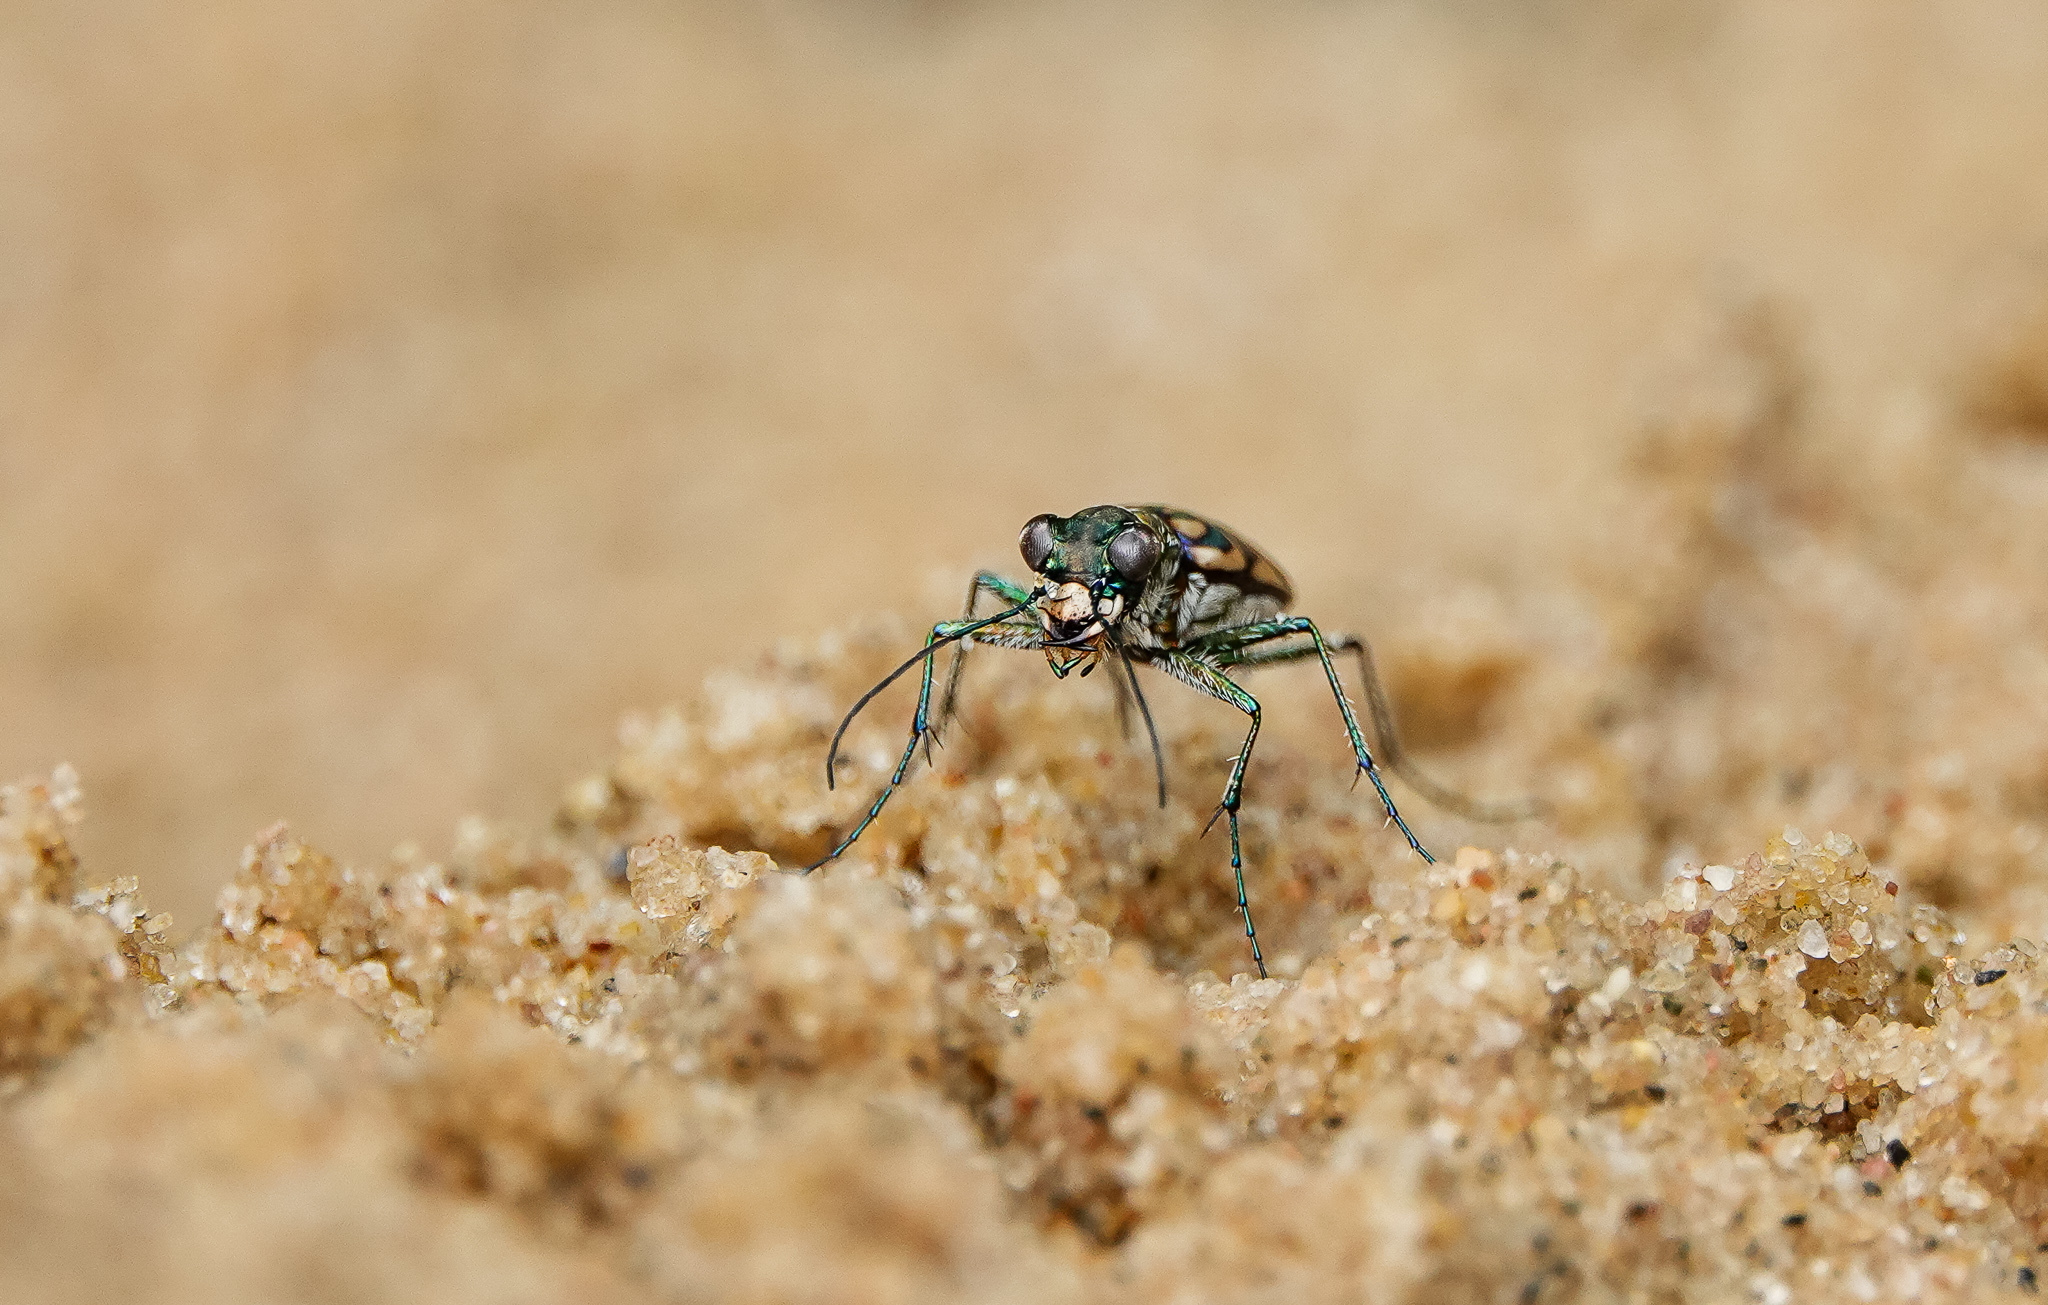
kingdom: Animalia
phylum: Arthropoda
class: Insecta
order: Coleoptera
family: Carabidae
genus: Lophyra
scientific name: Lophyra cancellata
